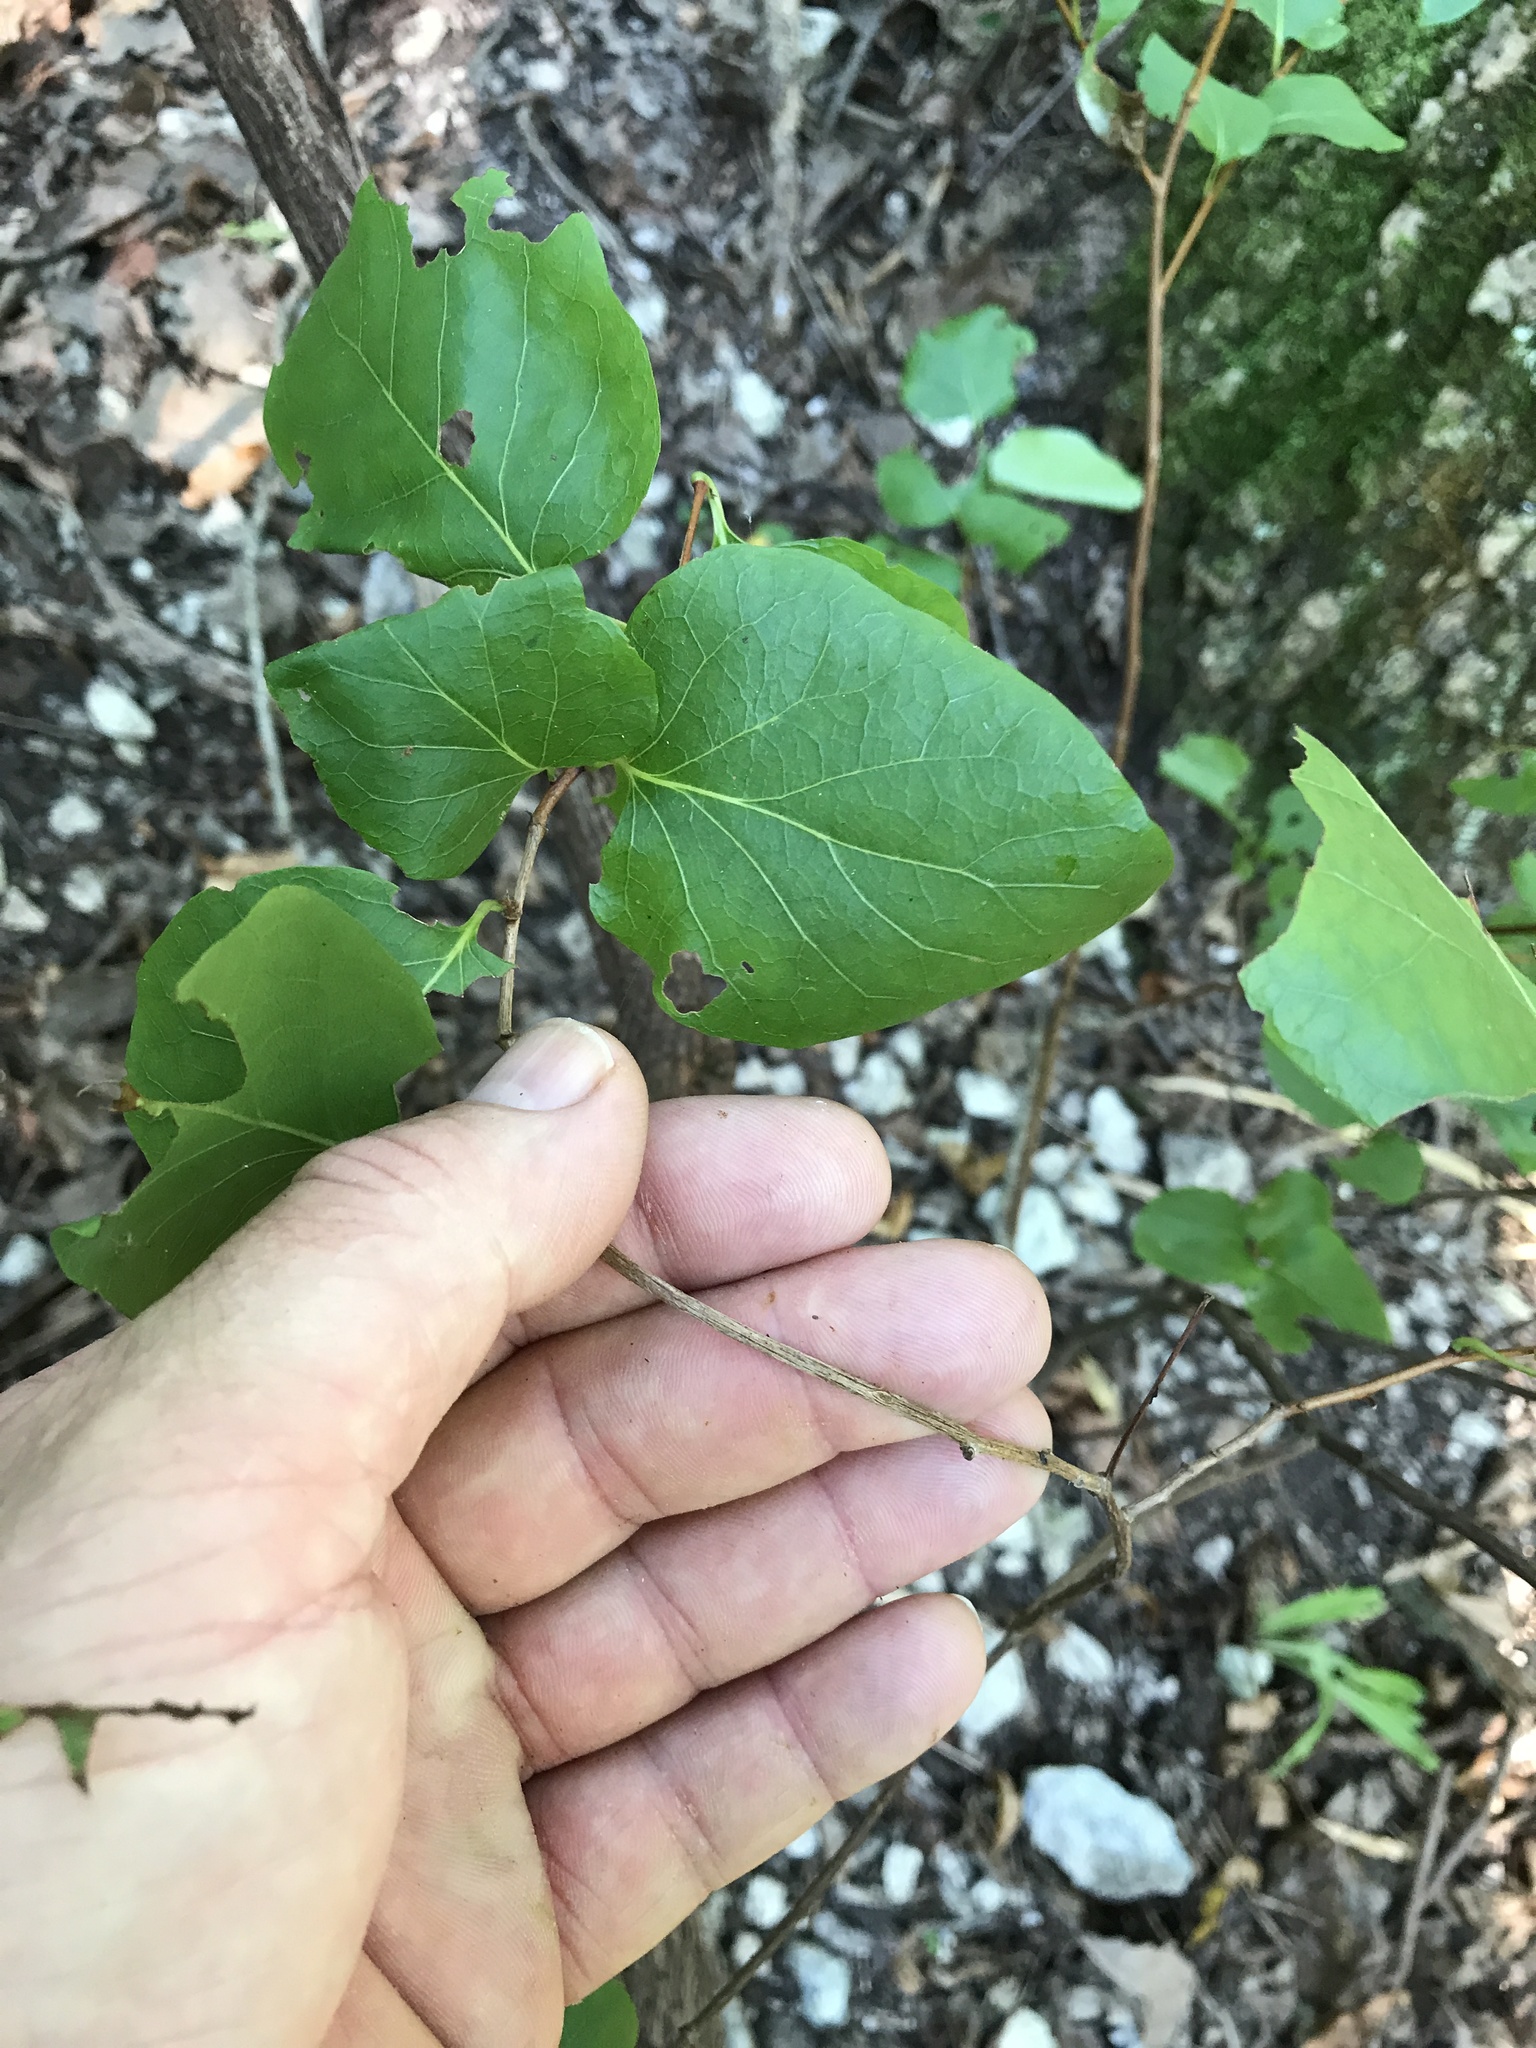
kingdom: Plantae
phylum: Tracheophyta
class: Magnoliopsida
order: Ericales
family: Styracaceae
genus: Styrax
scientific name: Styrax platanifolius
